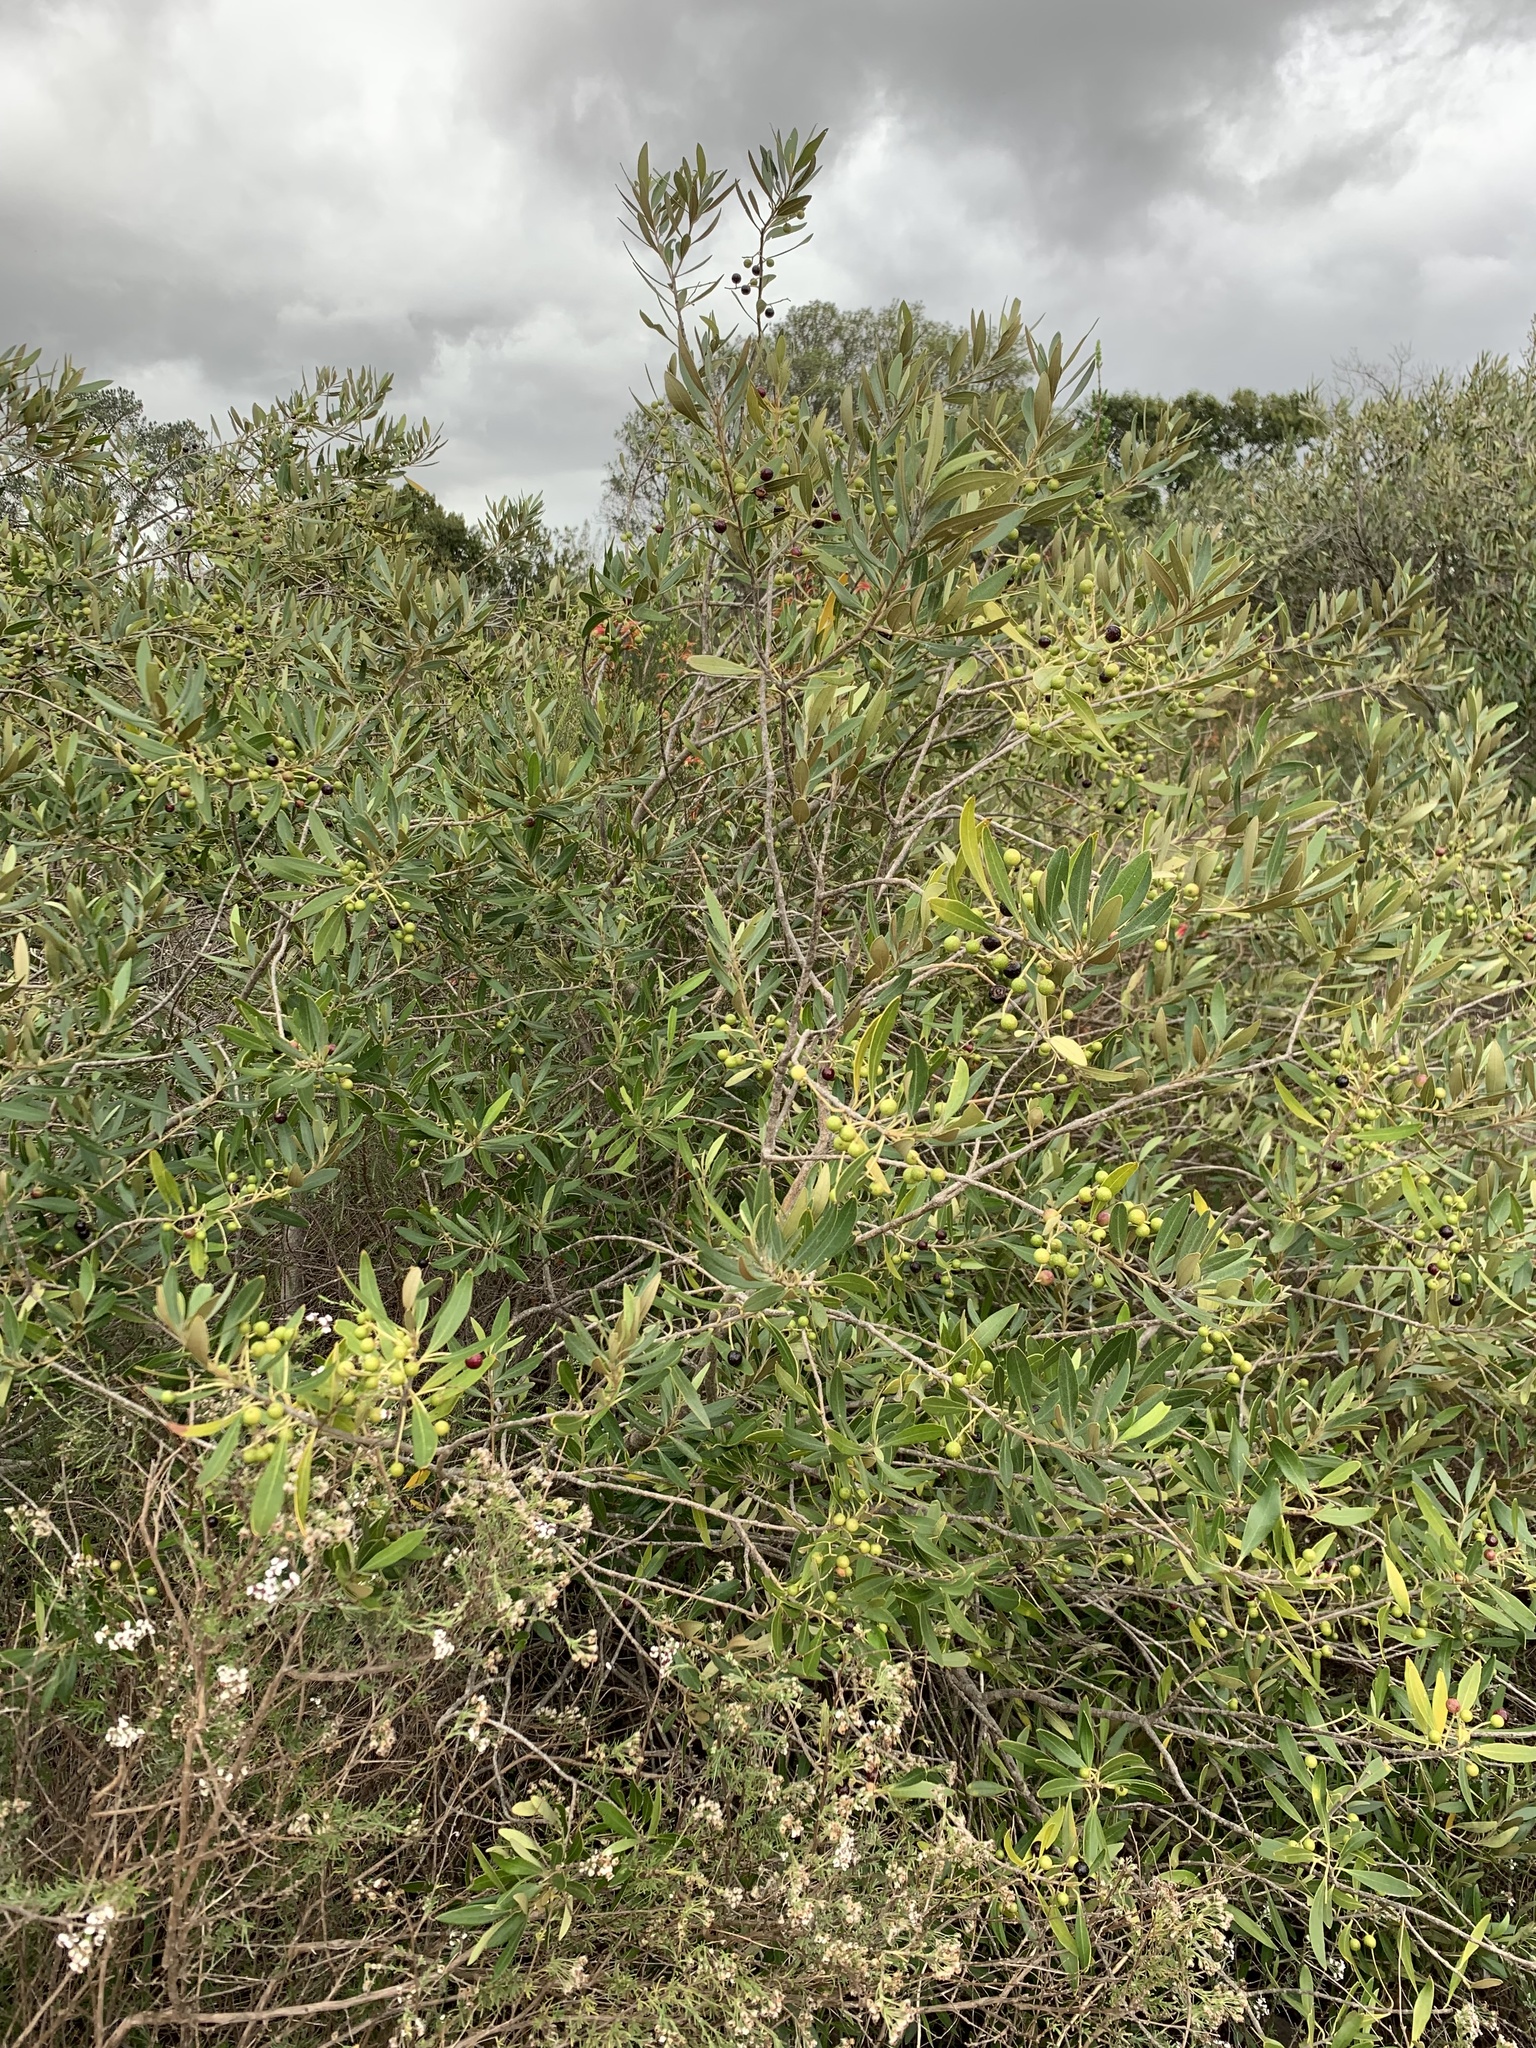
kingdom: Plantae
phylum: Tracheophyta
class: Magnoliopsida
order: Lamiales
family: Oleaceae
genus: Olea
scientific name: Olea europaea
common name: Olive
